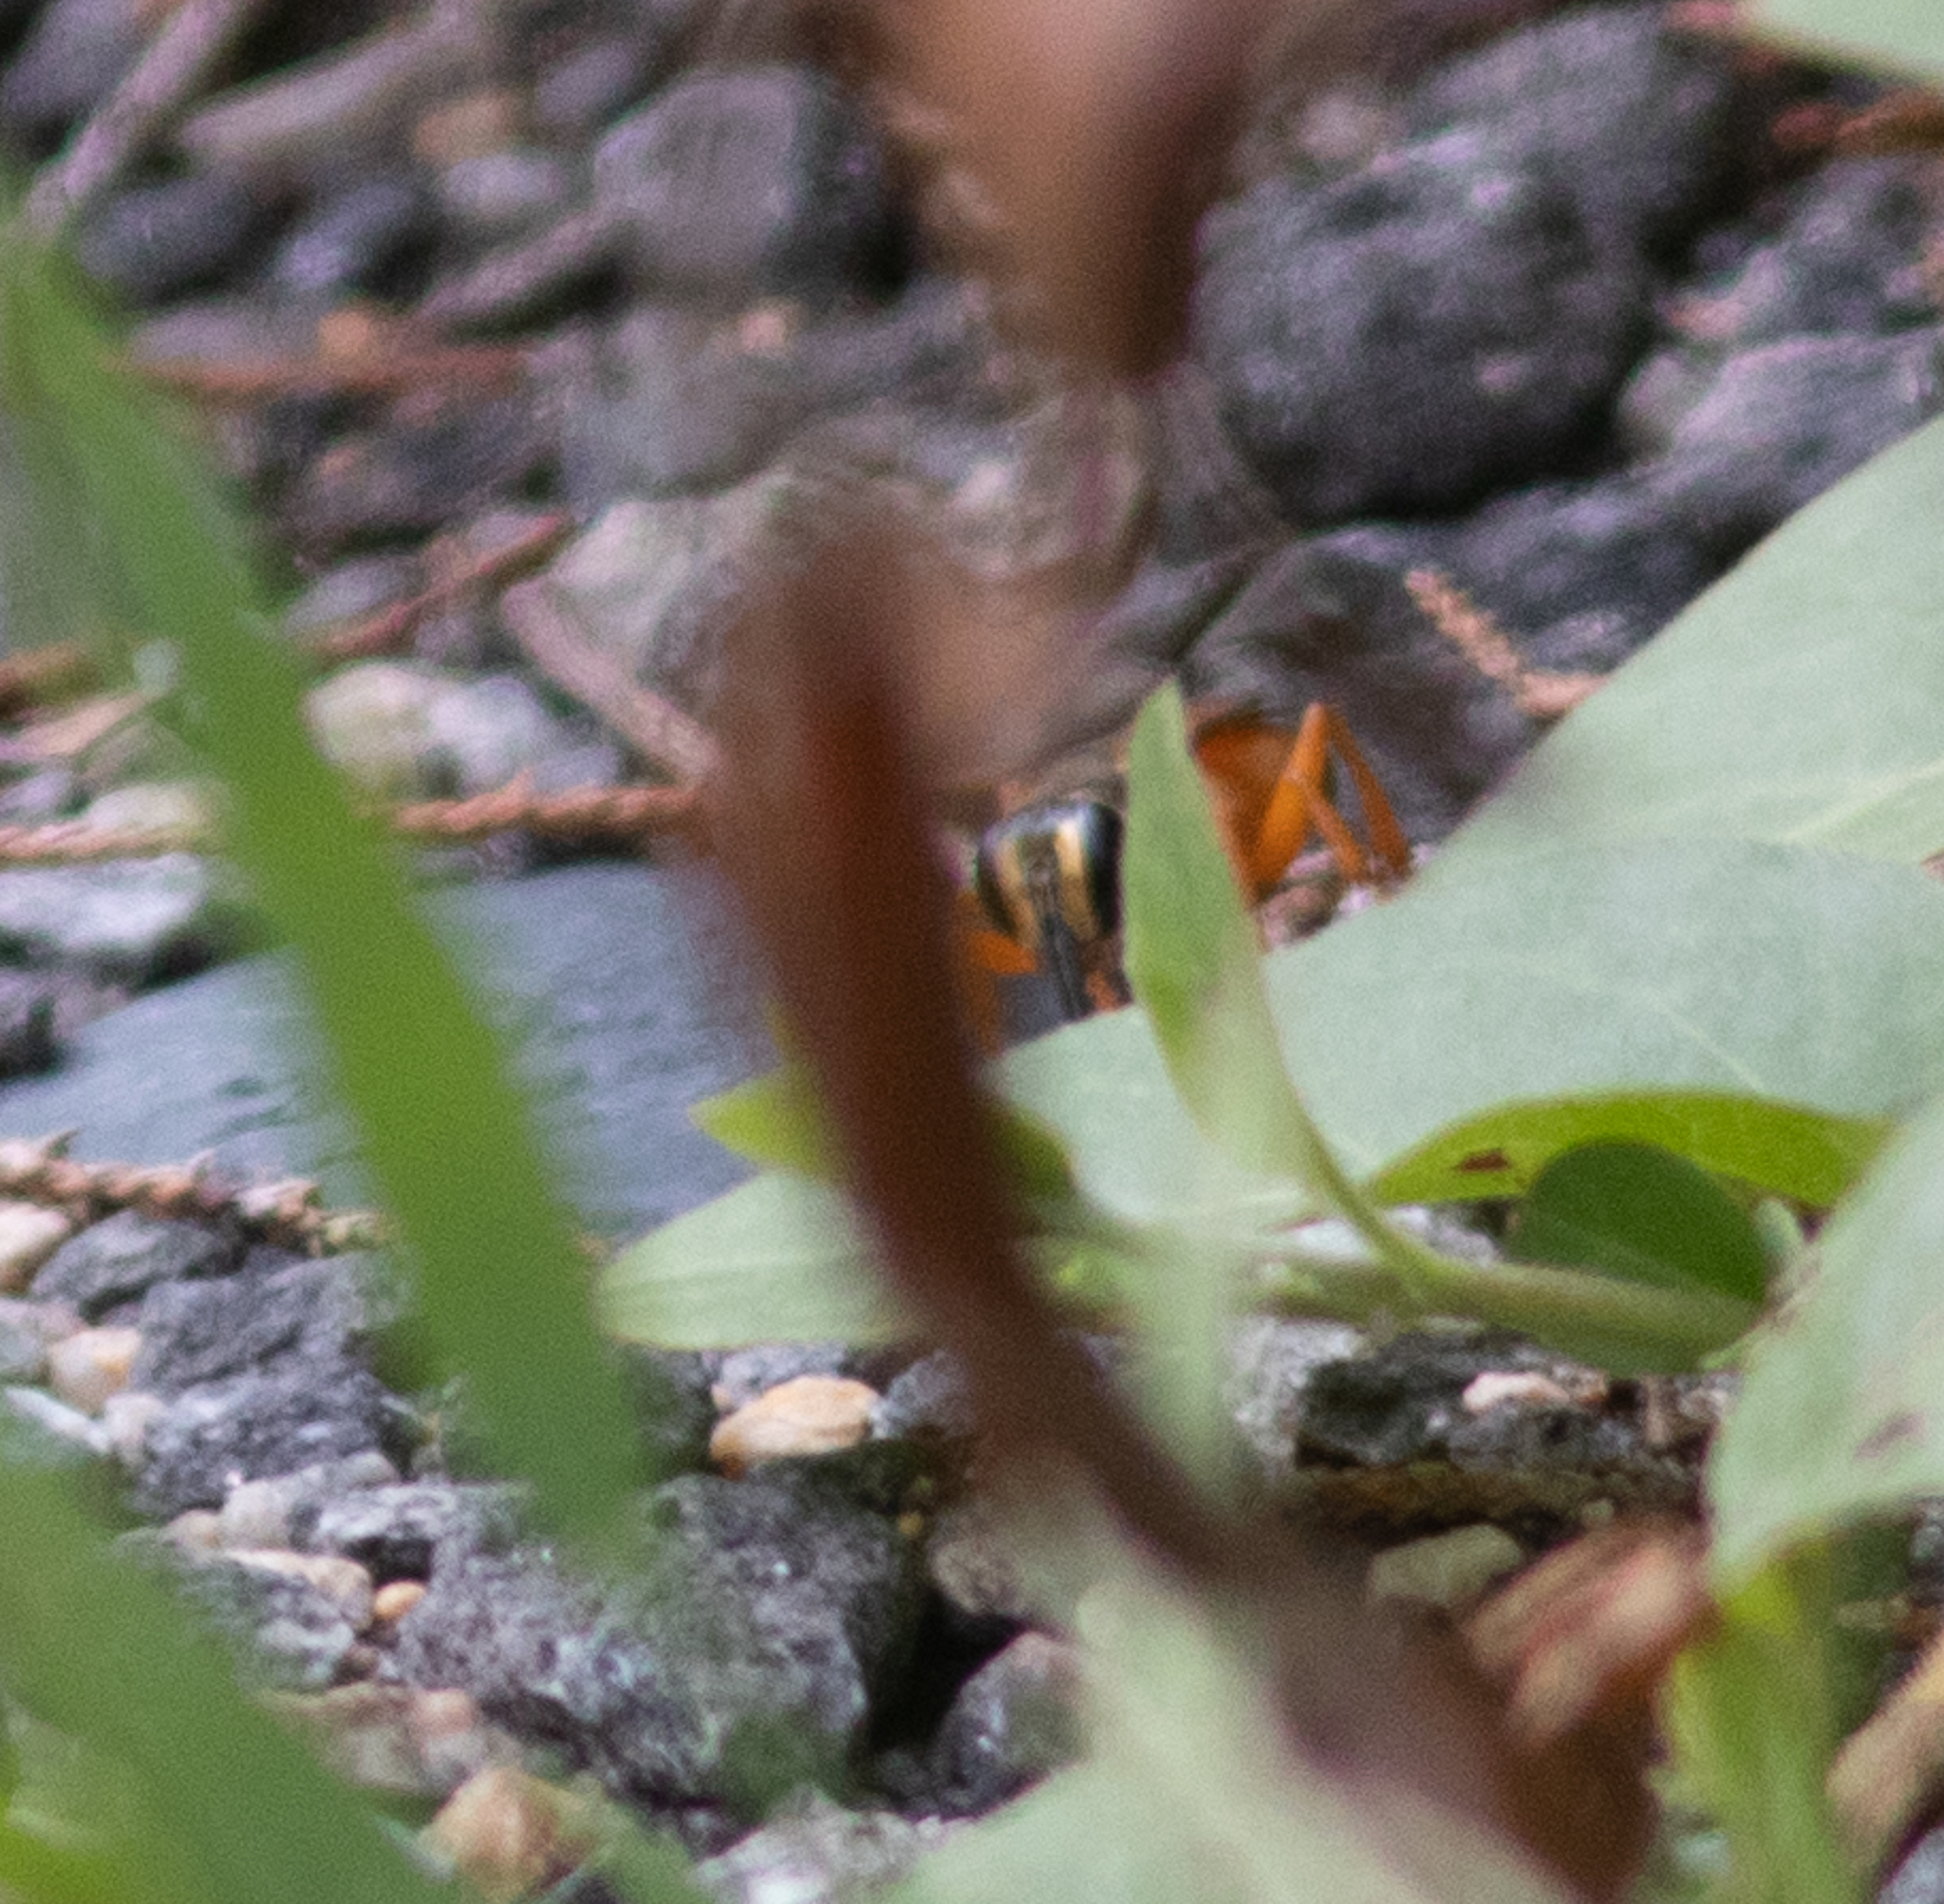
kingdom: Animalia
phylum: Arthropoda
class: Insecta
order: Hymenoptera
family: Sphecidae
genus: Sphex
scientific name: Sphex ichneumoneus
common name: Great golden digger wasp
